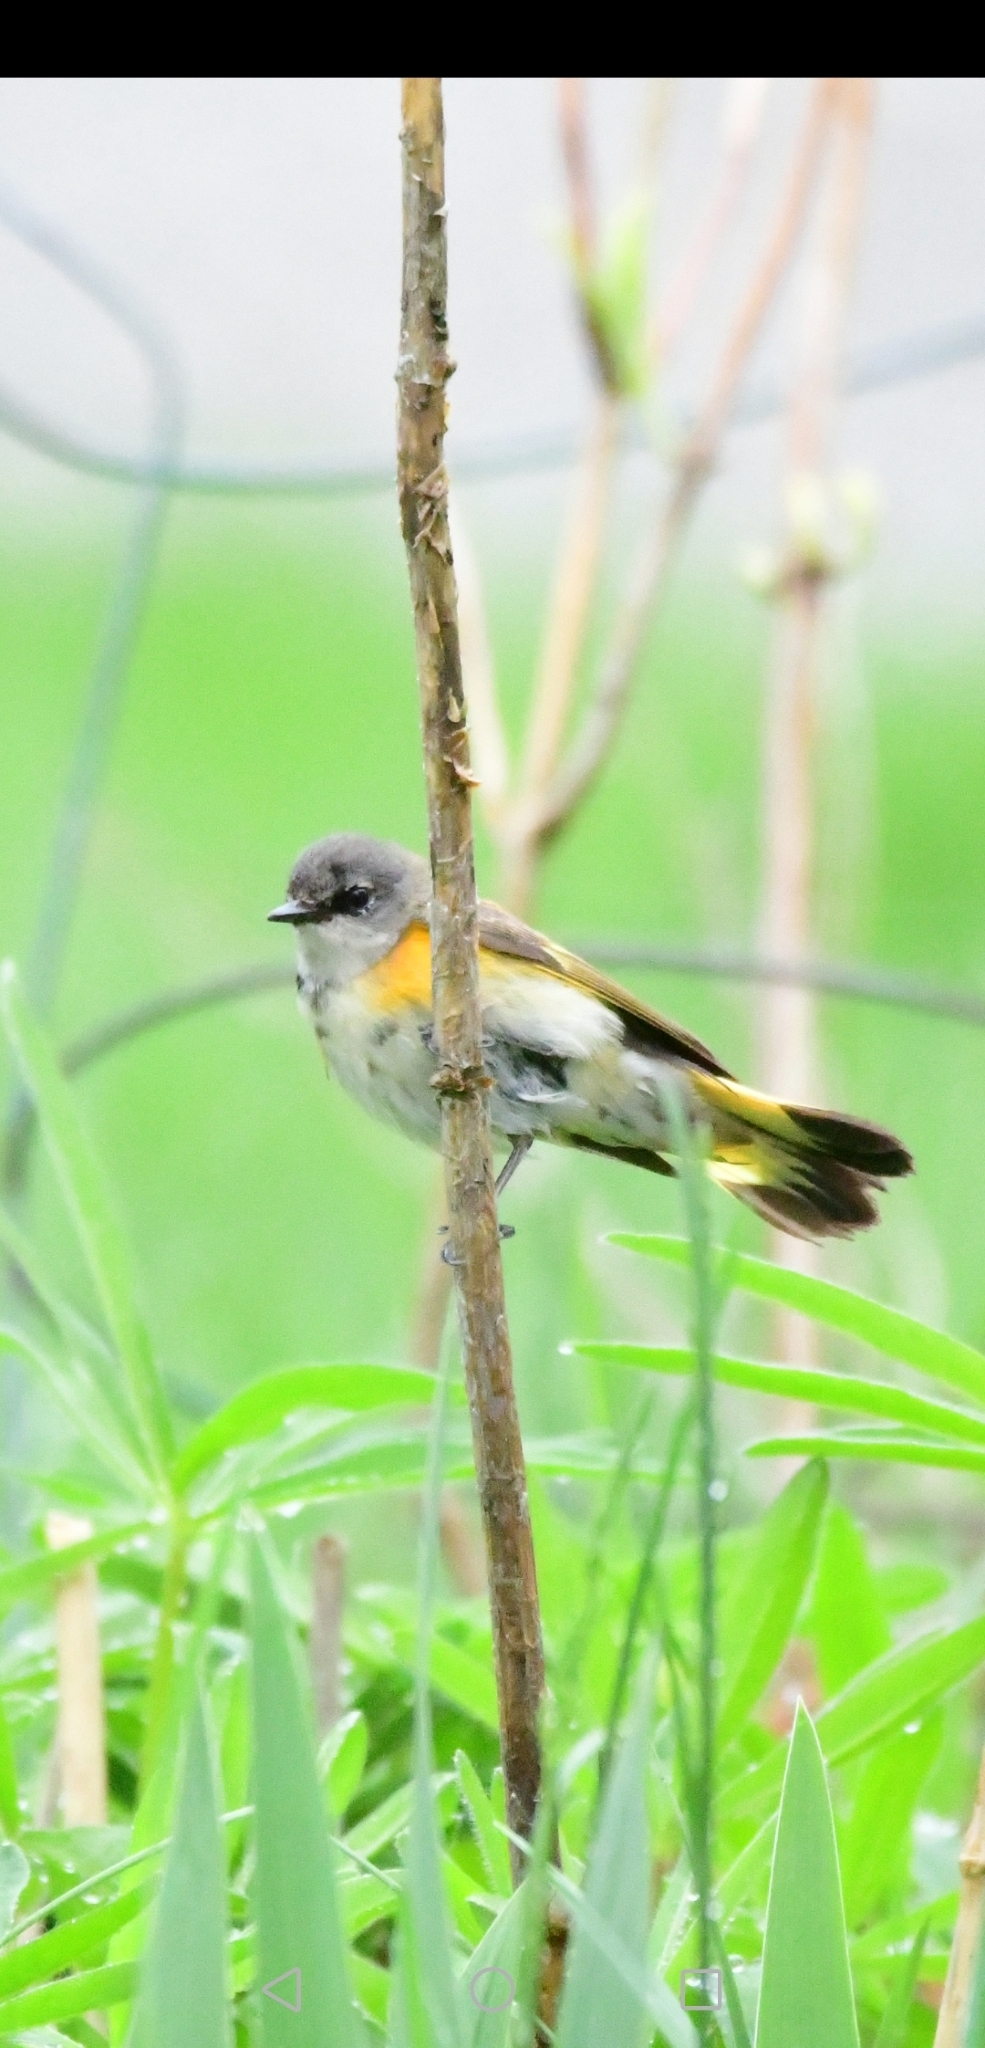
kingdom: Animalia
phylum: Chordata
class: Aves
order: Passeriformes
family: Parulidae
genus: Setophaga
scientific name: Setophaga ruticilla
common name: American redstart
